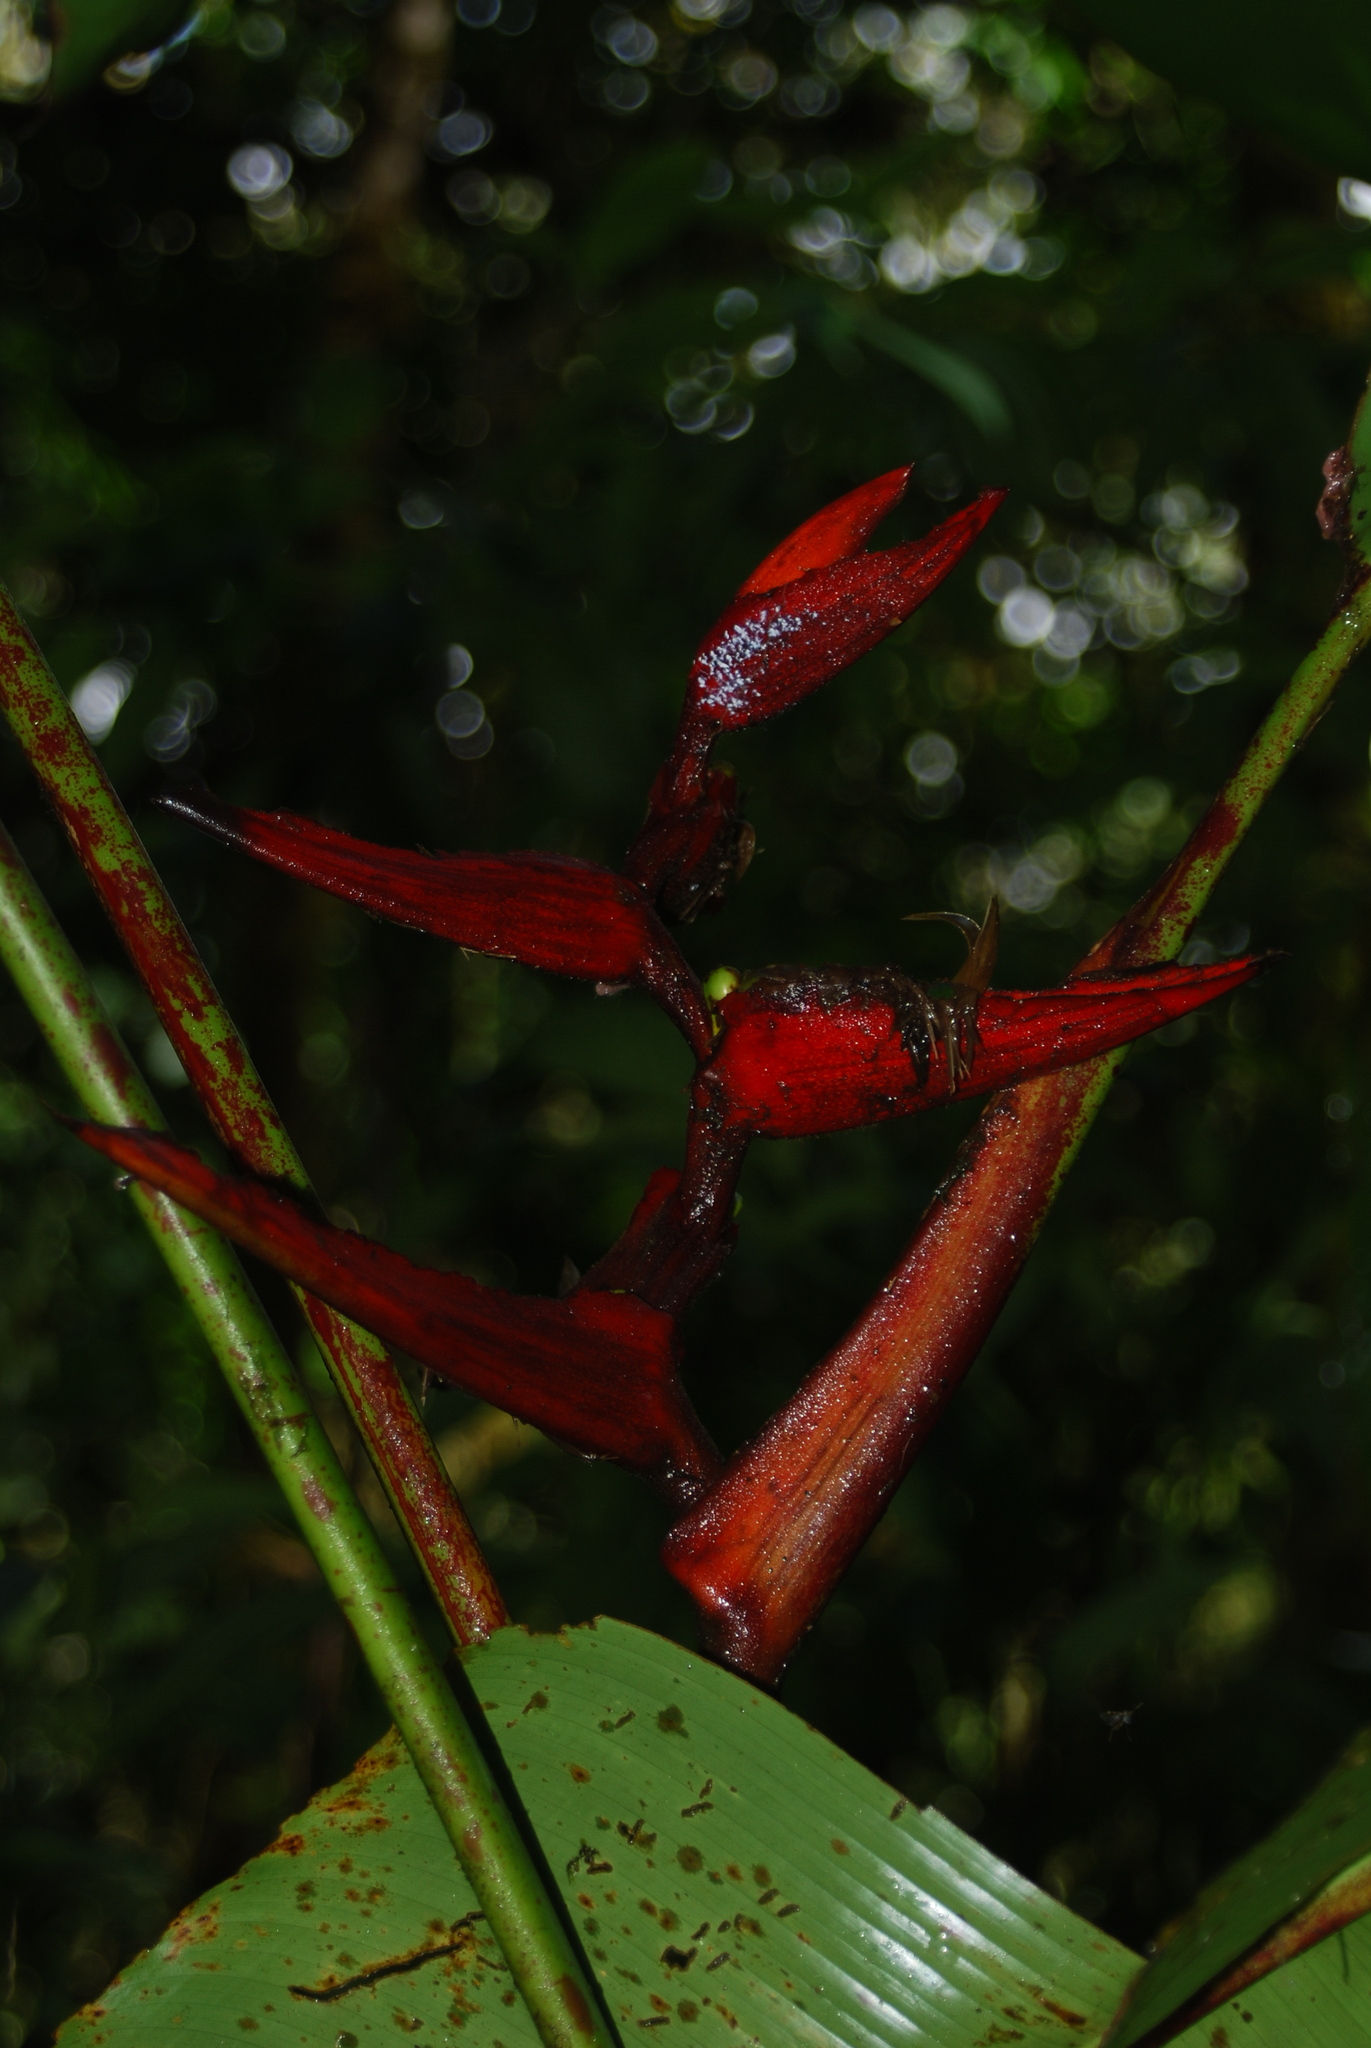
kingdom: Plantae
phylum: Tracheophyta
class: Liliopsida
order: Zingiberales
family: Heliconiaceae
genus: Heliconia
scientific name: Heliconia monteverdensis
